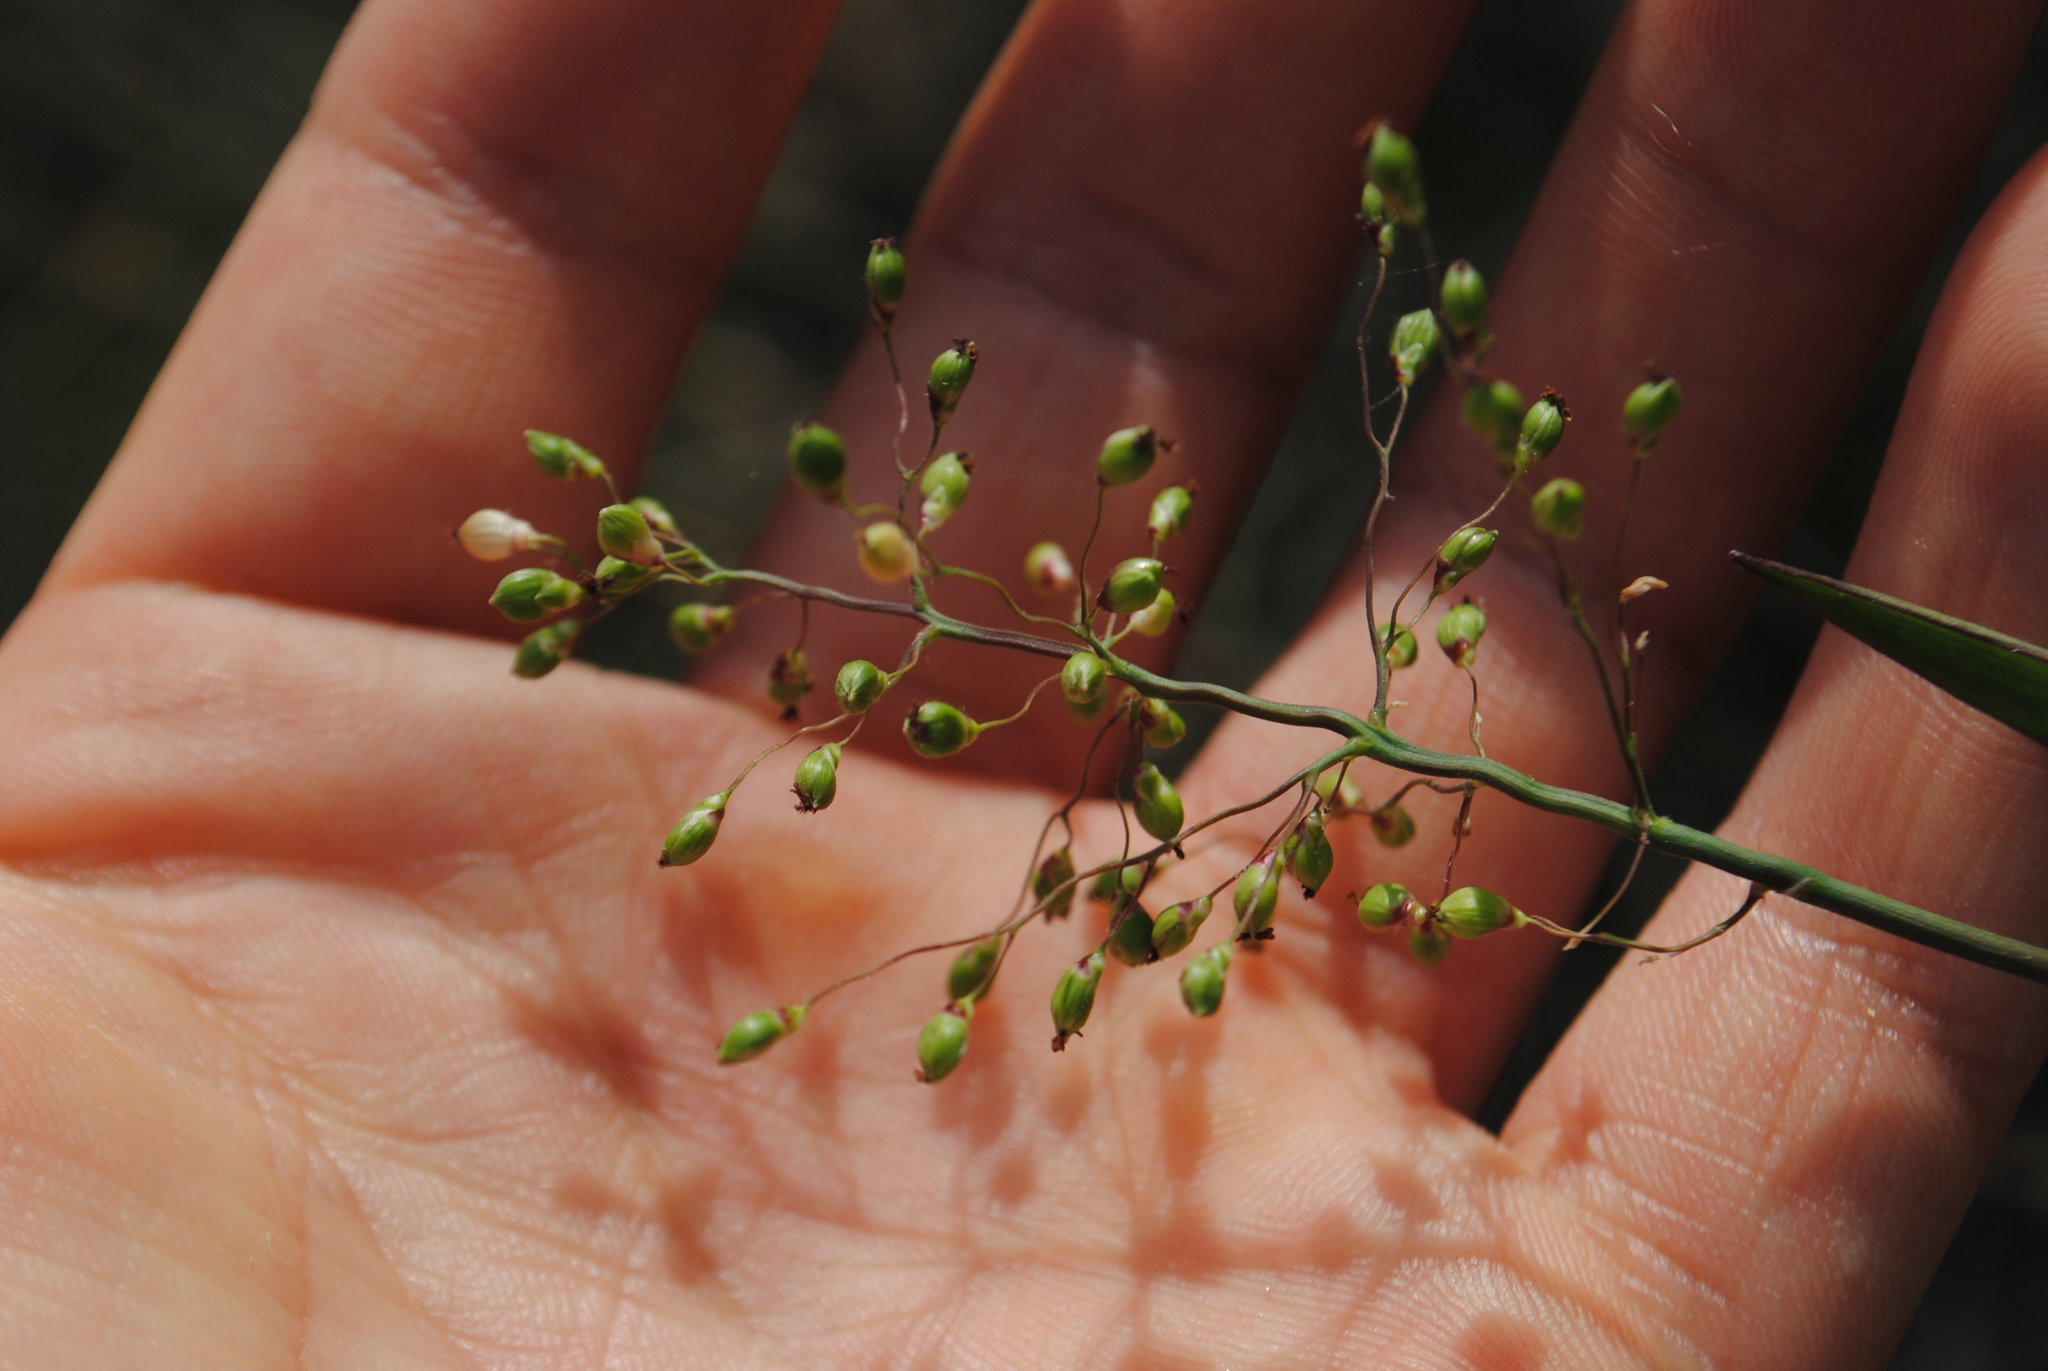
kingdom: Plantae
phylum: Tracheophyta
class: Liliopsida
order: Poales
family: Poaceae
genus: Dichanthelium
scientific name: Dichanthelium scribnerianum
